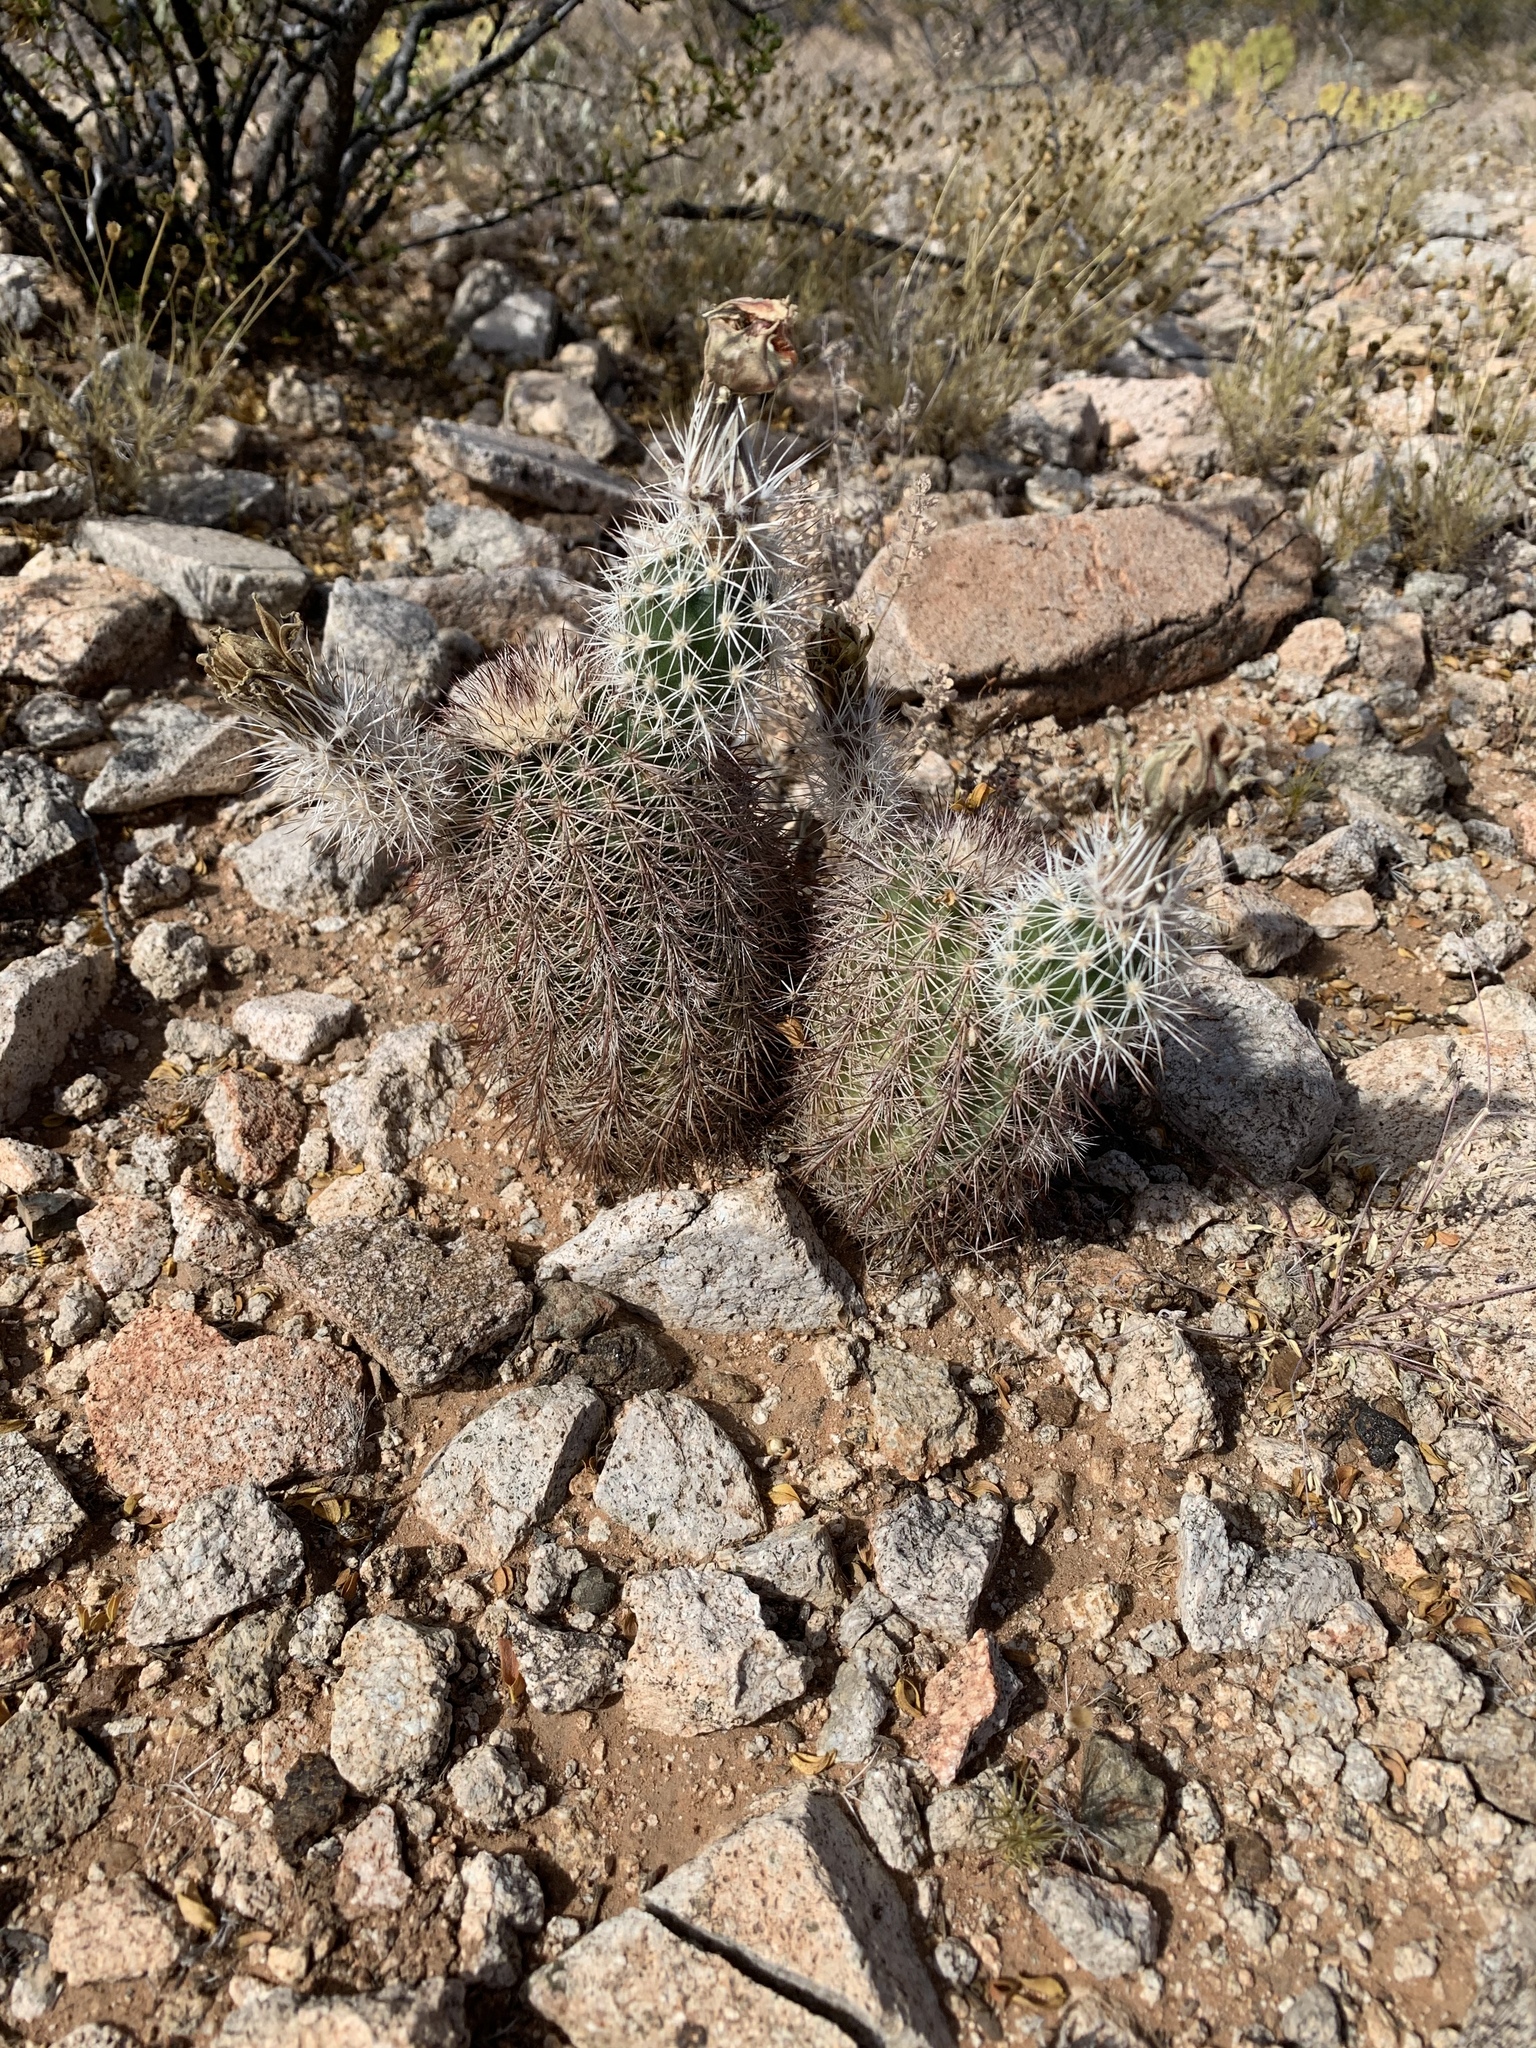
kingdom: Plantae
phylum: Tracheophyta
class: Magnoliopsida
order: Caryophyllales
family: Cactaceae
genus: Echinocereus
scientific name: Echinocereus dasyacanthus
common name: Spiny hedgehog cactus
